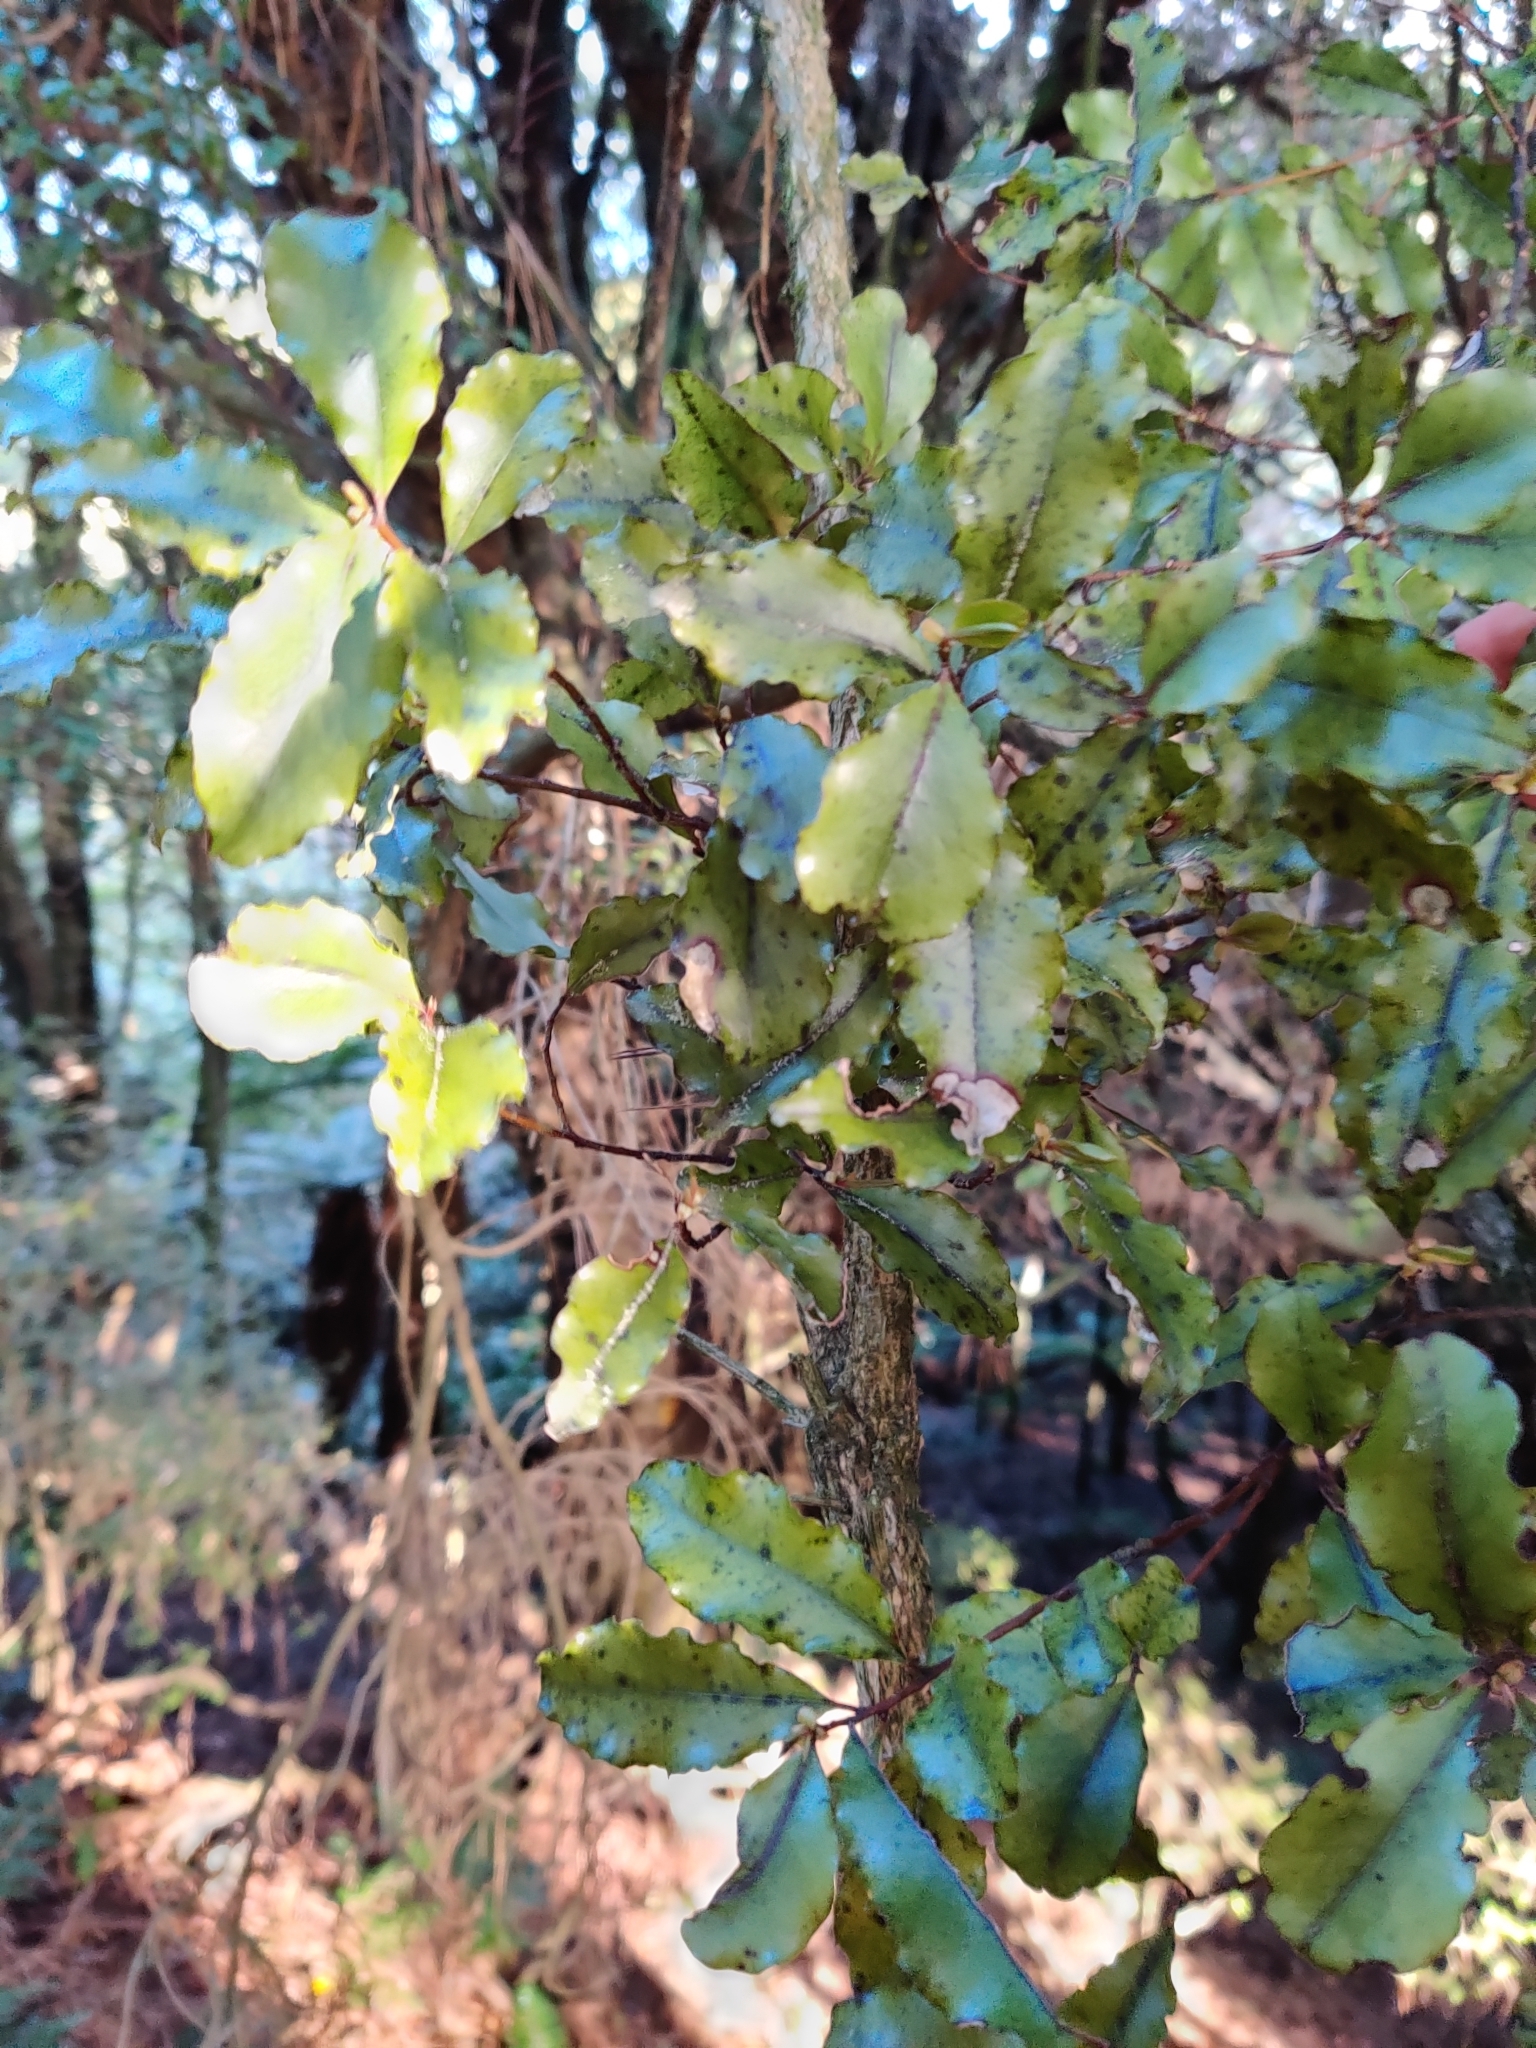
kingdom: Plantae
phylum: Tracheophyta
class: Magnoliopsida
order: Ericales
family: Primulaceae
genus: Myrsine
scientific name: Myrsine australis
